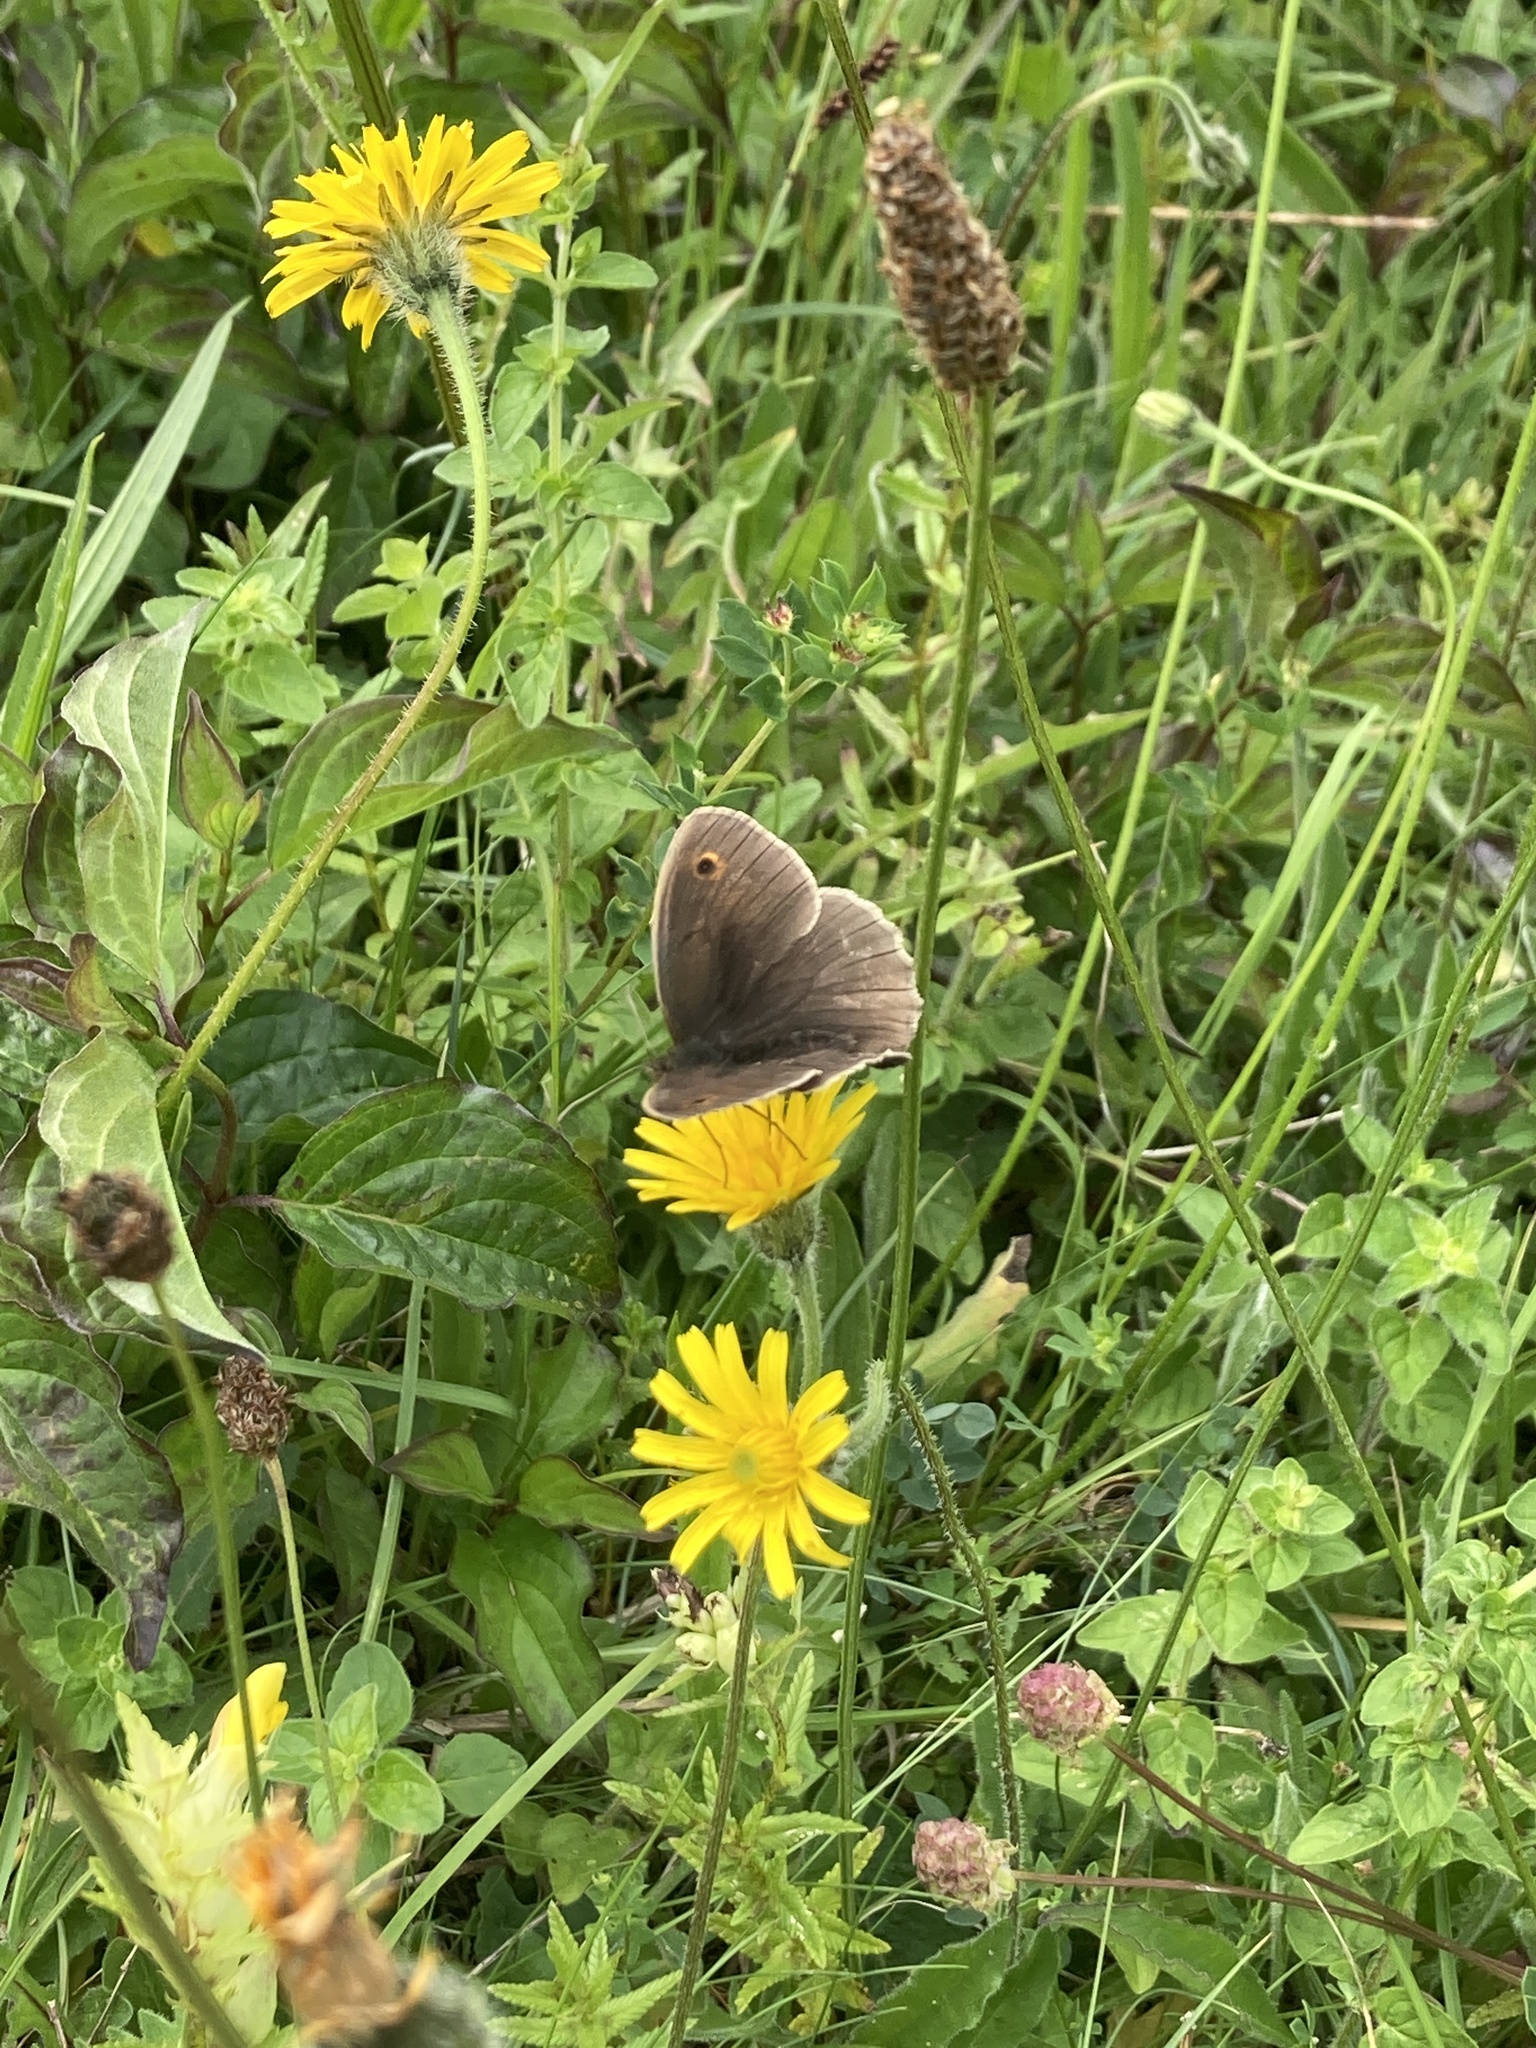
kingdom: Animalia
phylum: Arthropoda
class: Insecta
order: Lepidoptera
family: Nymphalidae
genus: Maniola
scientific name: Maniola jurtina
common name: Meadow brown
